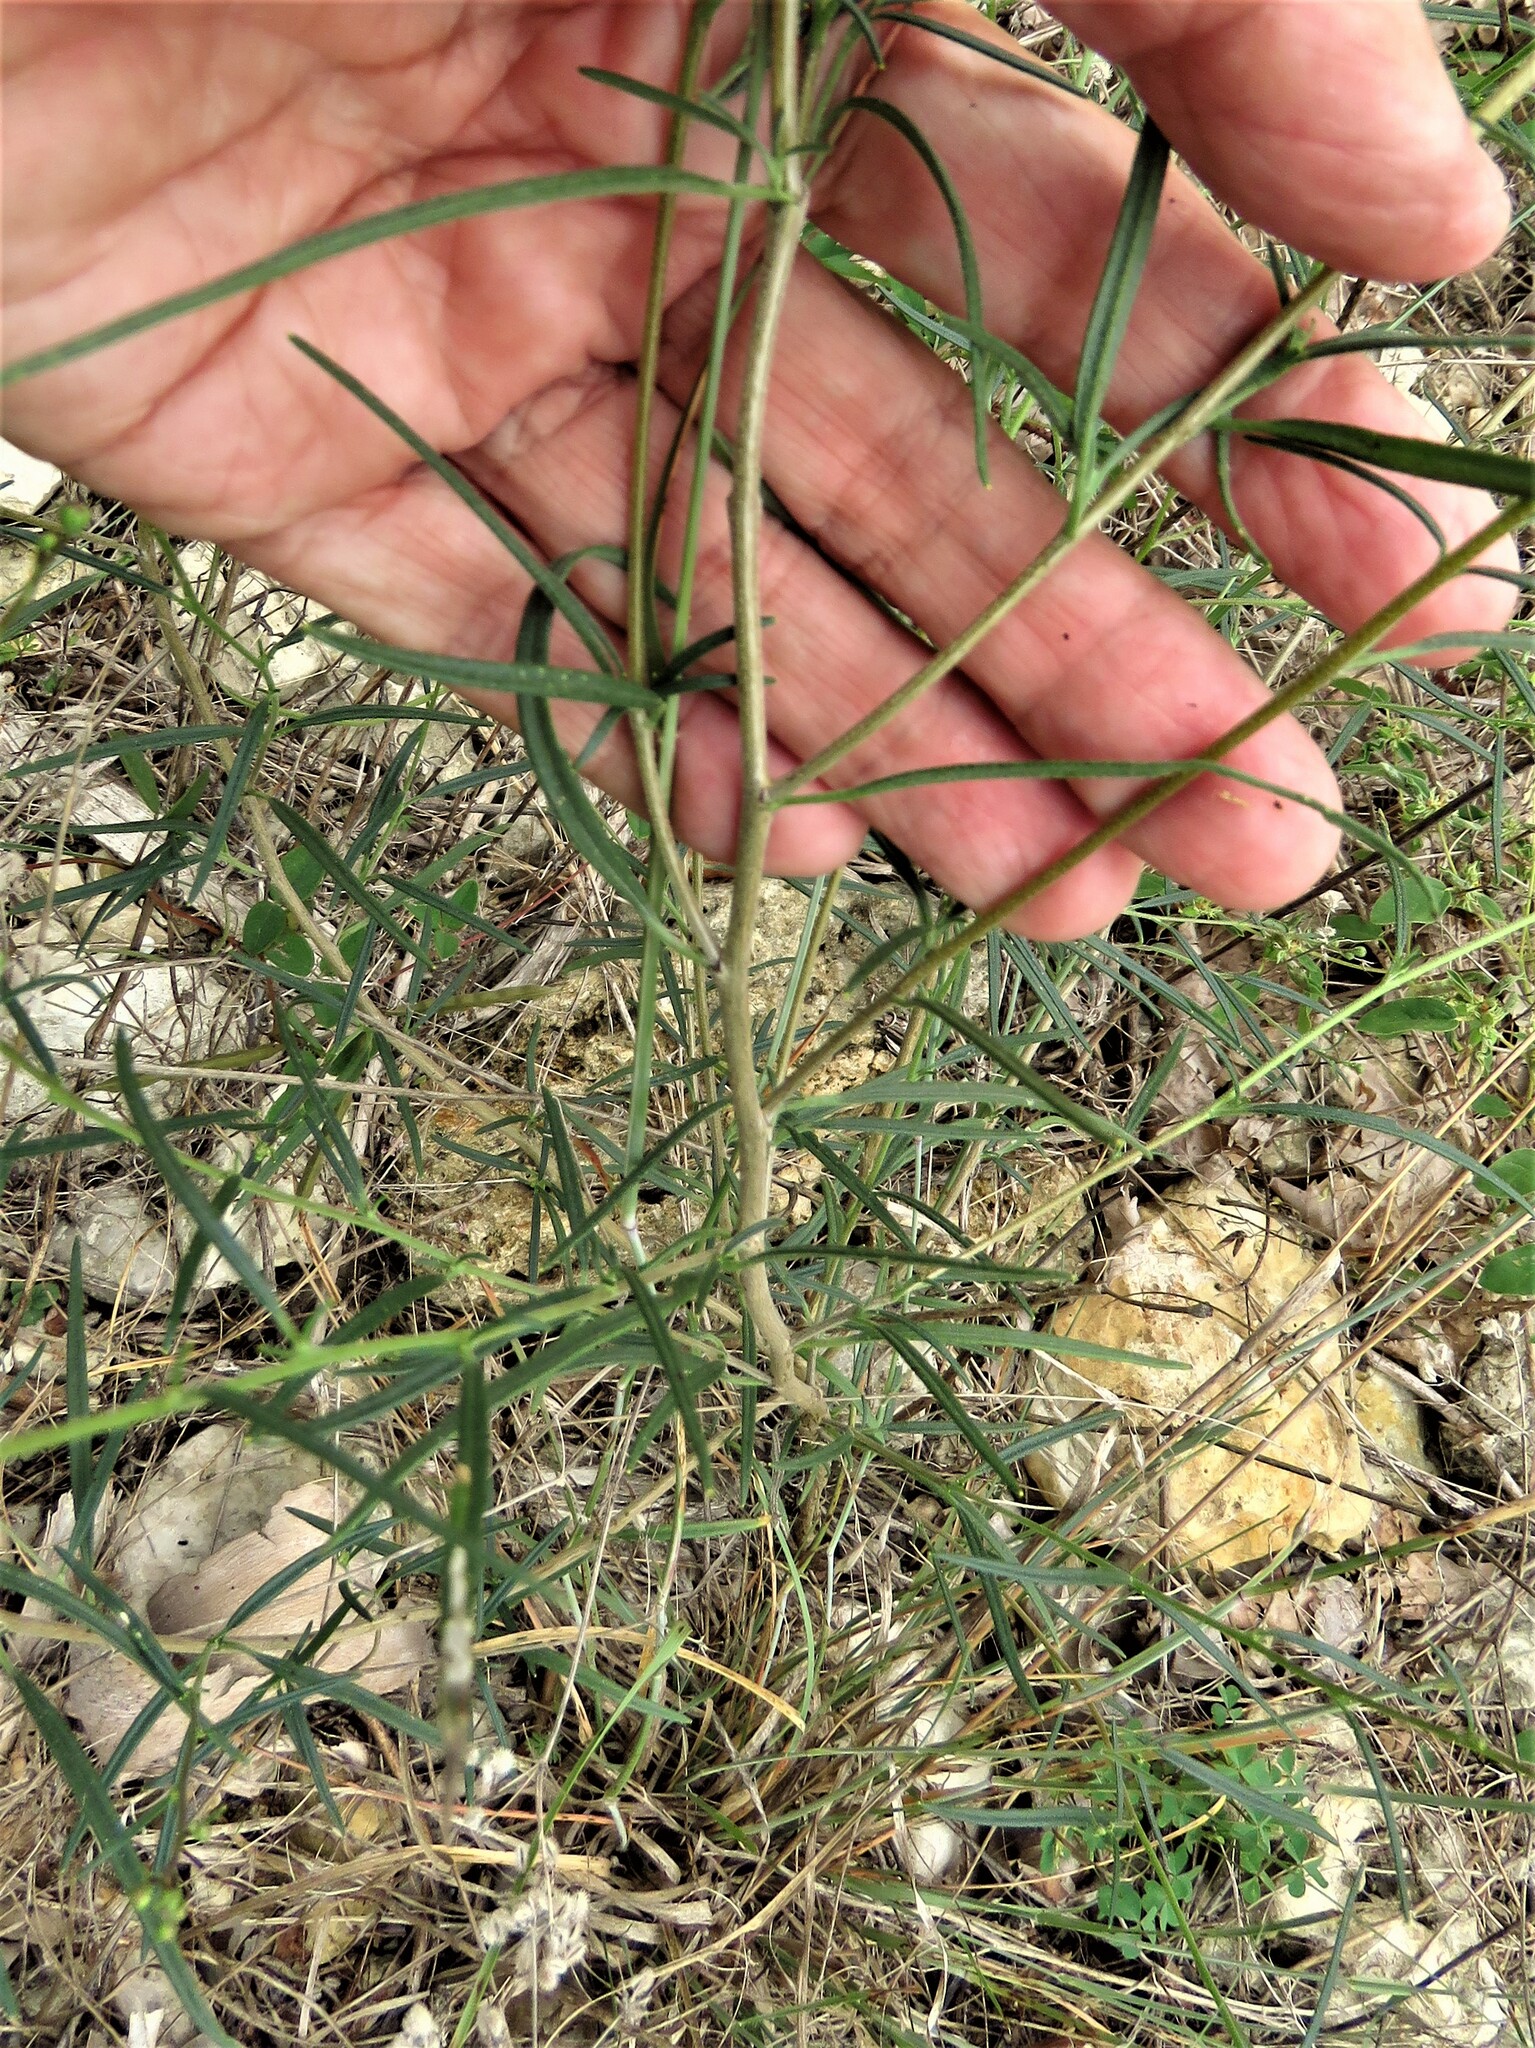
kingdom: Plantae
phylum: Tracheophyta
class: Magnoliopsida
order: Asterales
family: Asteraceae
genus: Palafoxia
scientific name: Palafoxia callosa
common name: Small palafox
